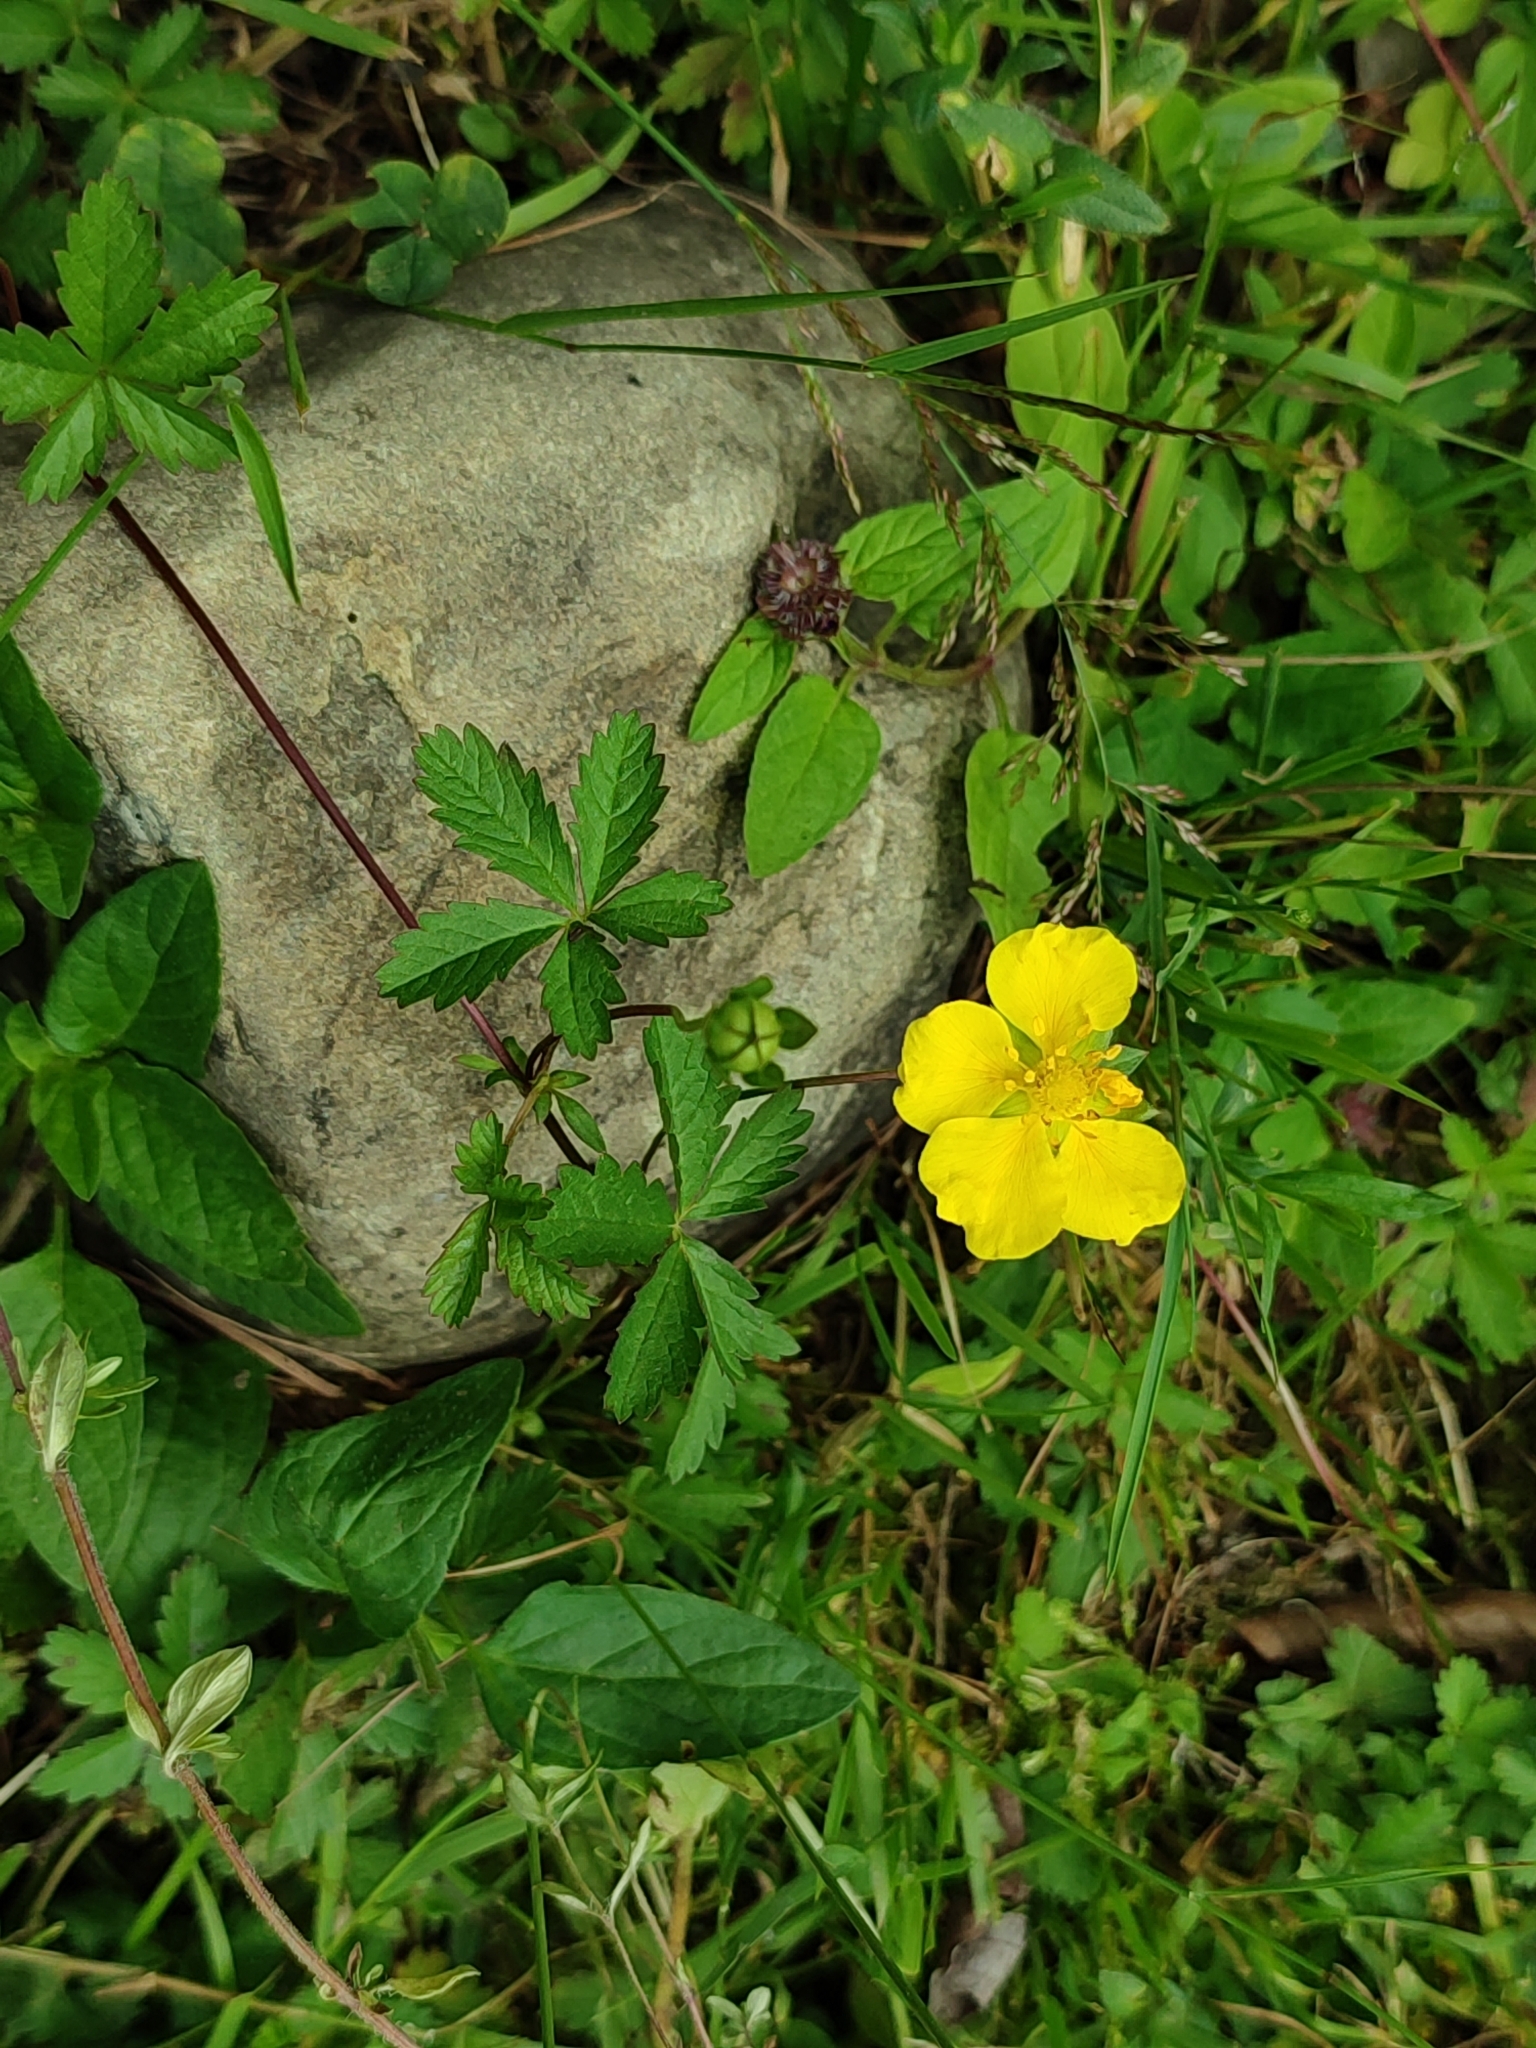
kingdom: Plantae
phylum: Tracheophyta
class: Magnoliopsida
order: Rosales
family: Rosaceae
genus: Potentilla
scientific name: Potentilla reptans
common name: Creeping cinquefoil
